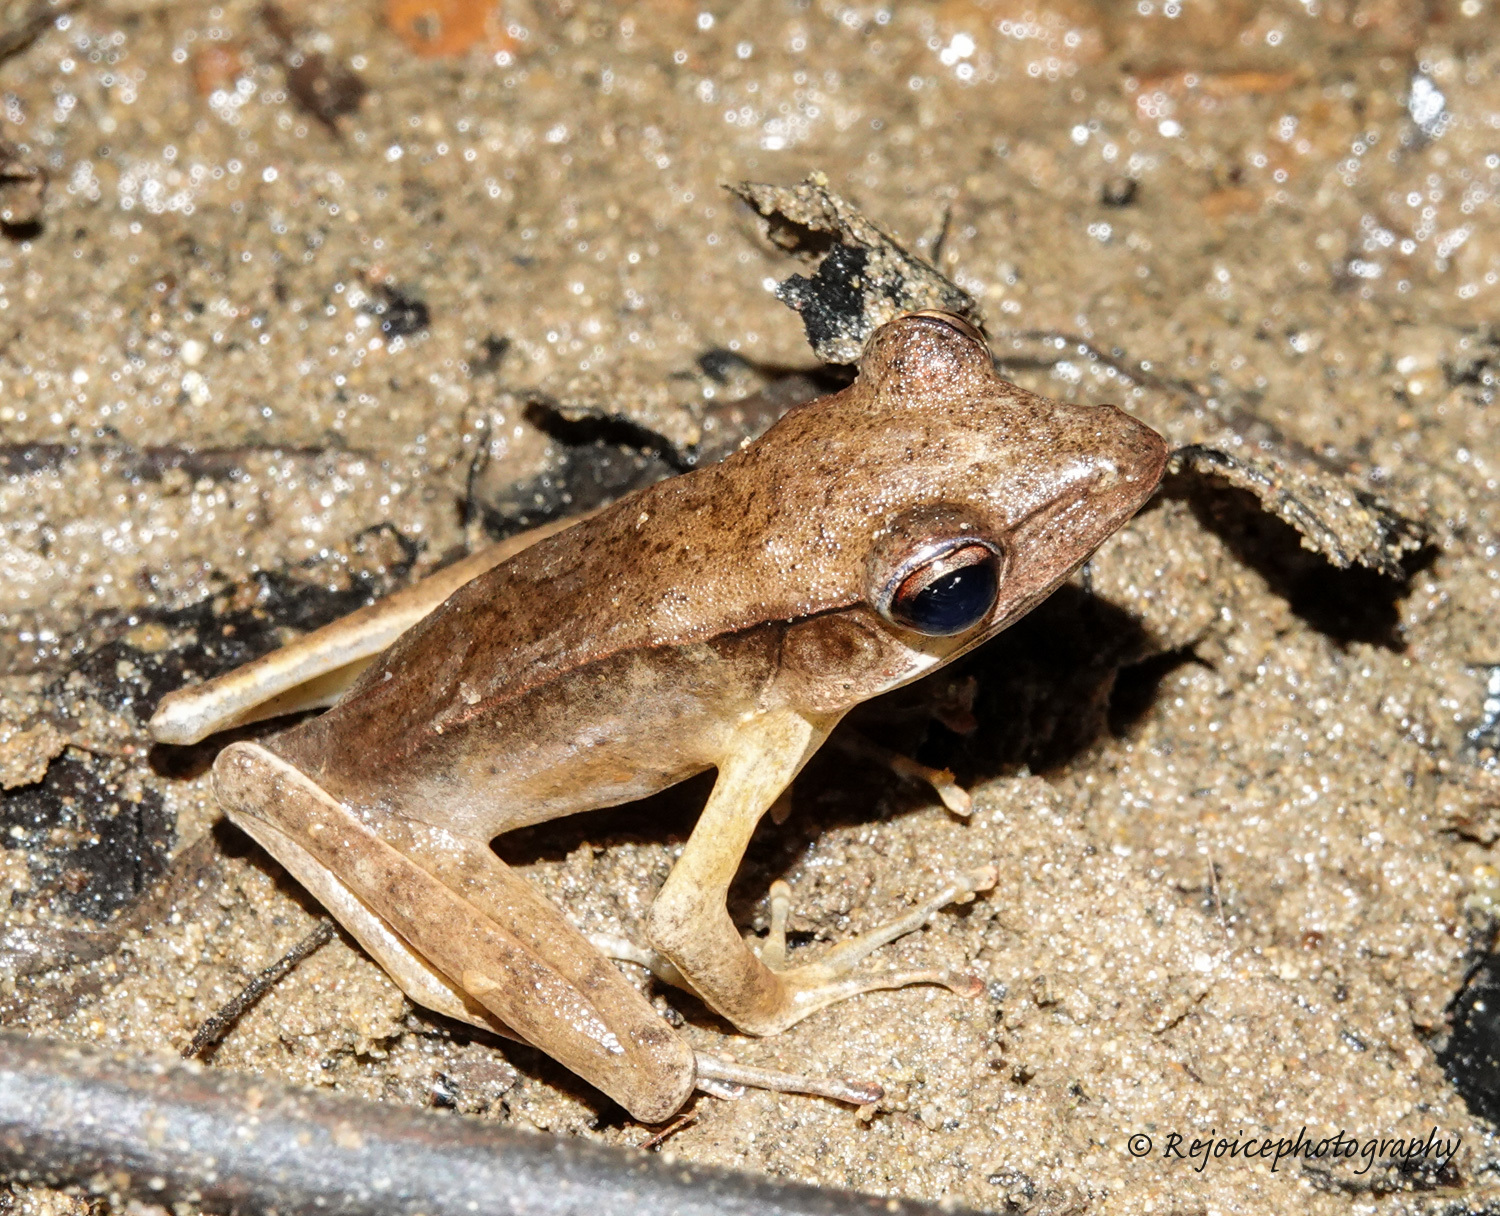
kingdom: Animalia
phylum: Chordata
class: Amphibia
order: Anura
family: Ranidae
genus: Clinotarsus
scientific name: Clinotarsus alticola
